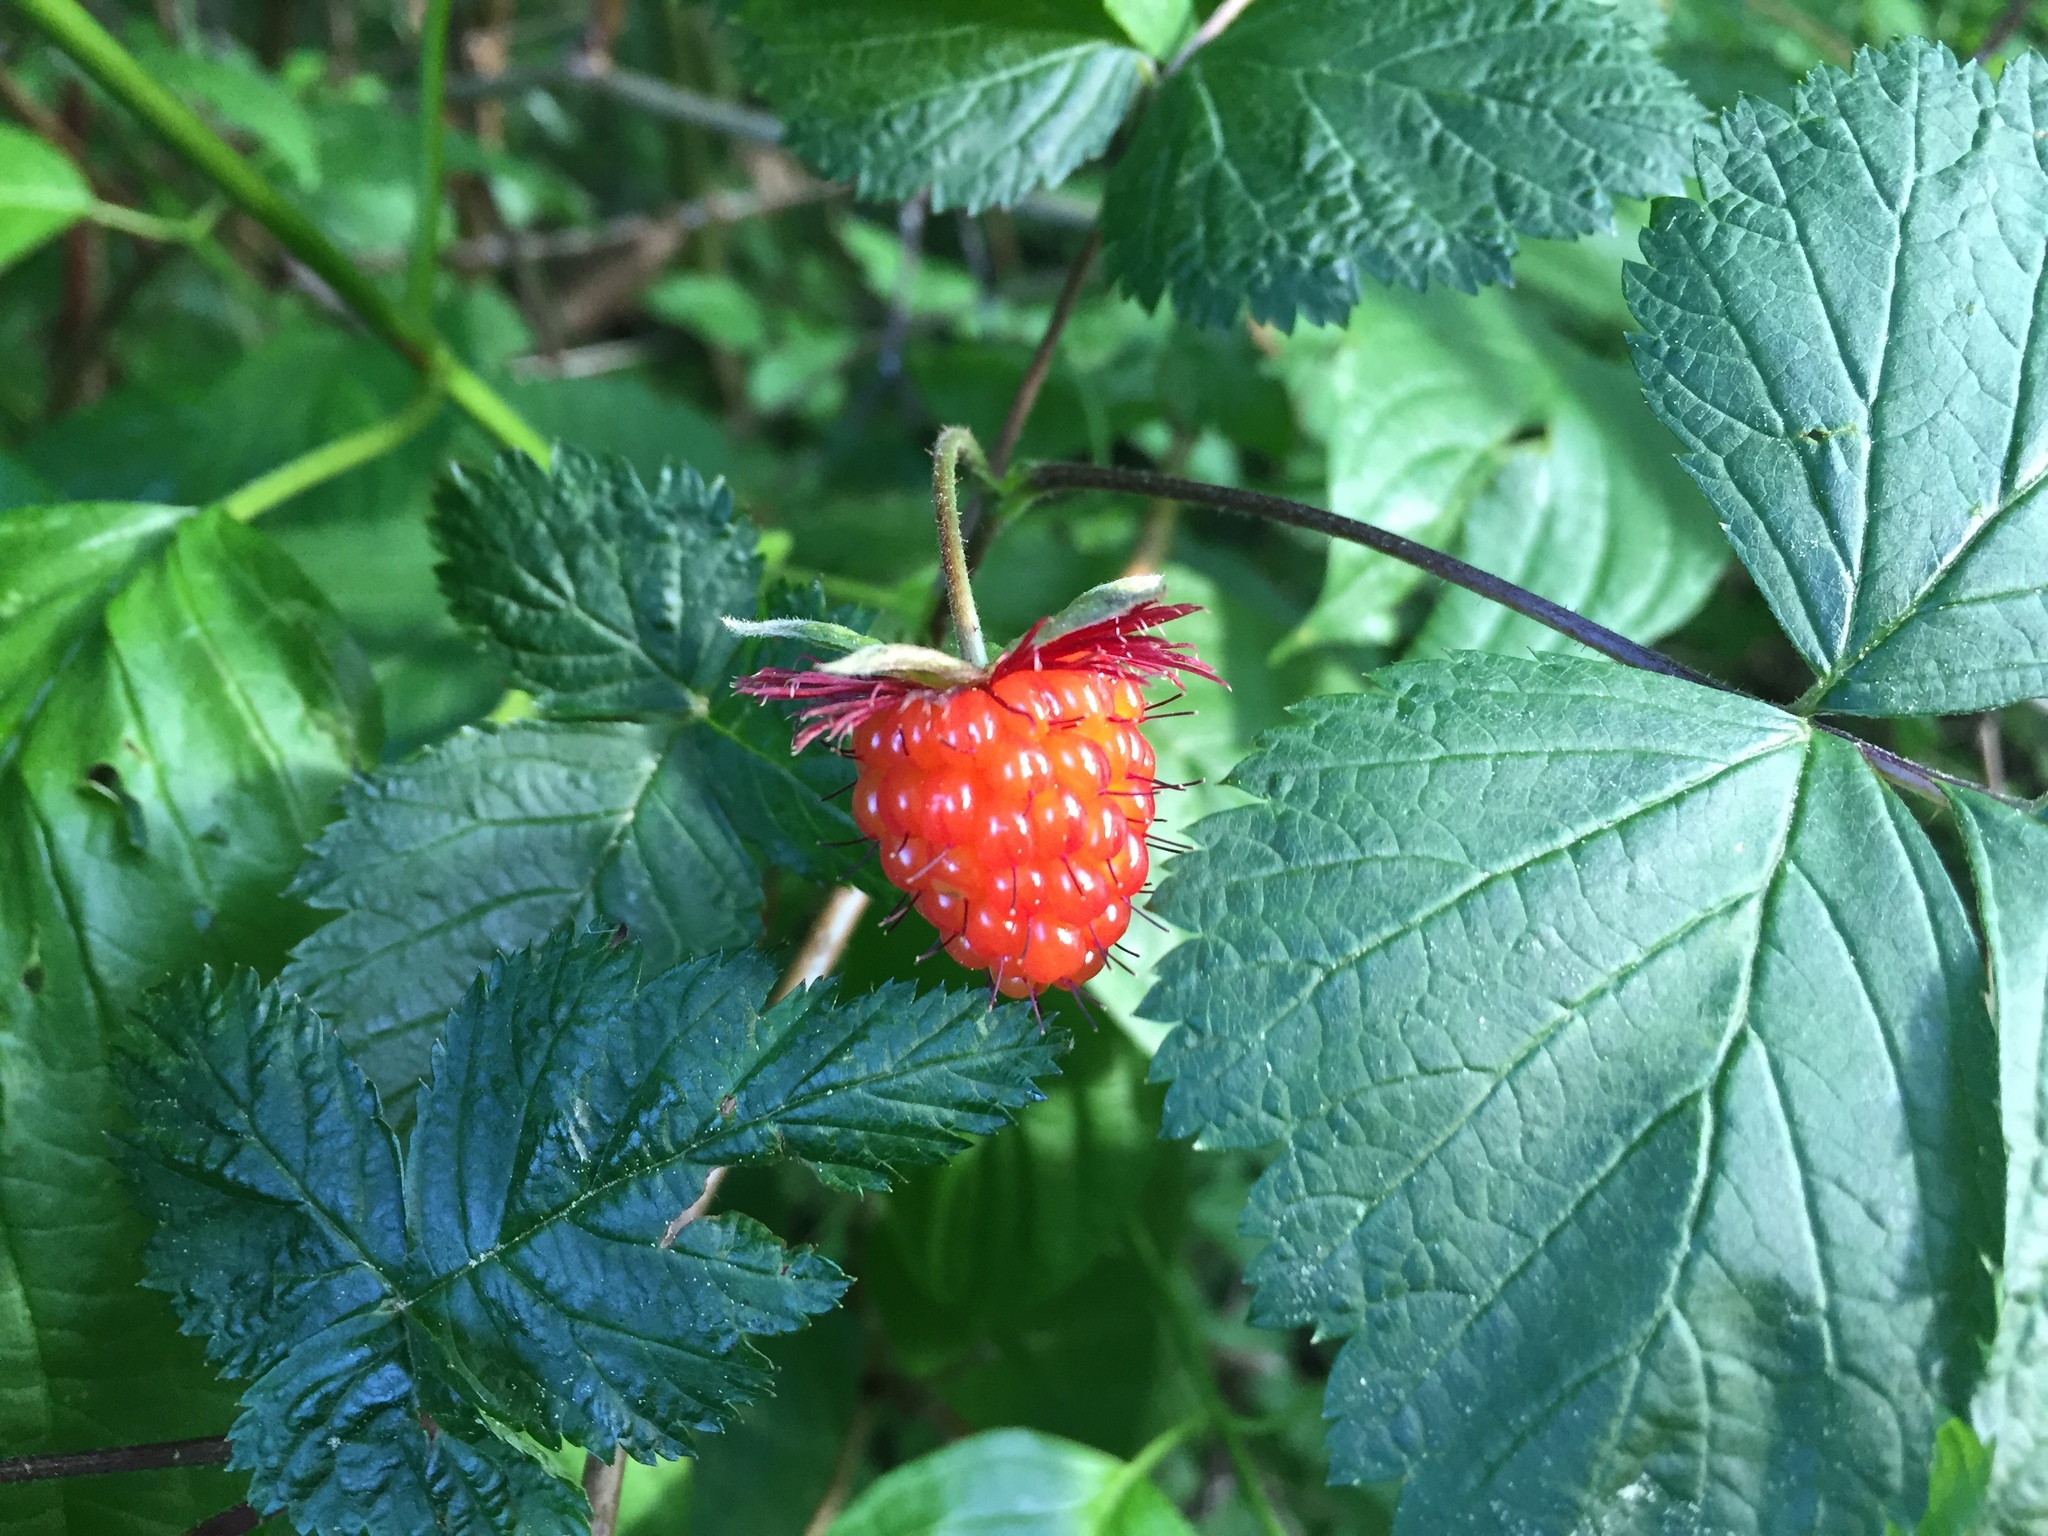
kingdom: Plantae
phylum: Tracheophyta
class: Magnoliopsida
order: Rosales
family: Rosaceae
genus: Rubus
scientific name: Rubus spectabilis
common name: Salmonberry
